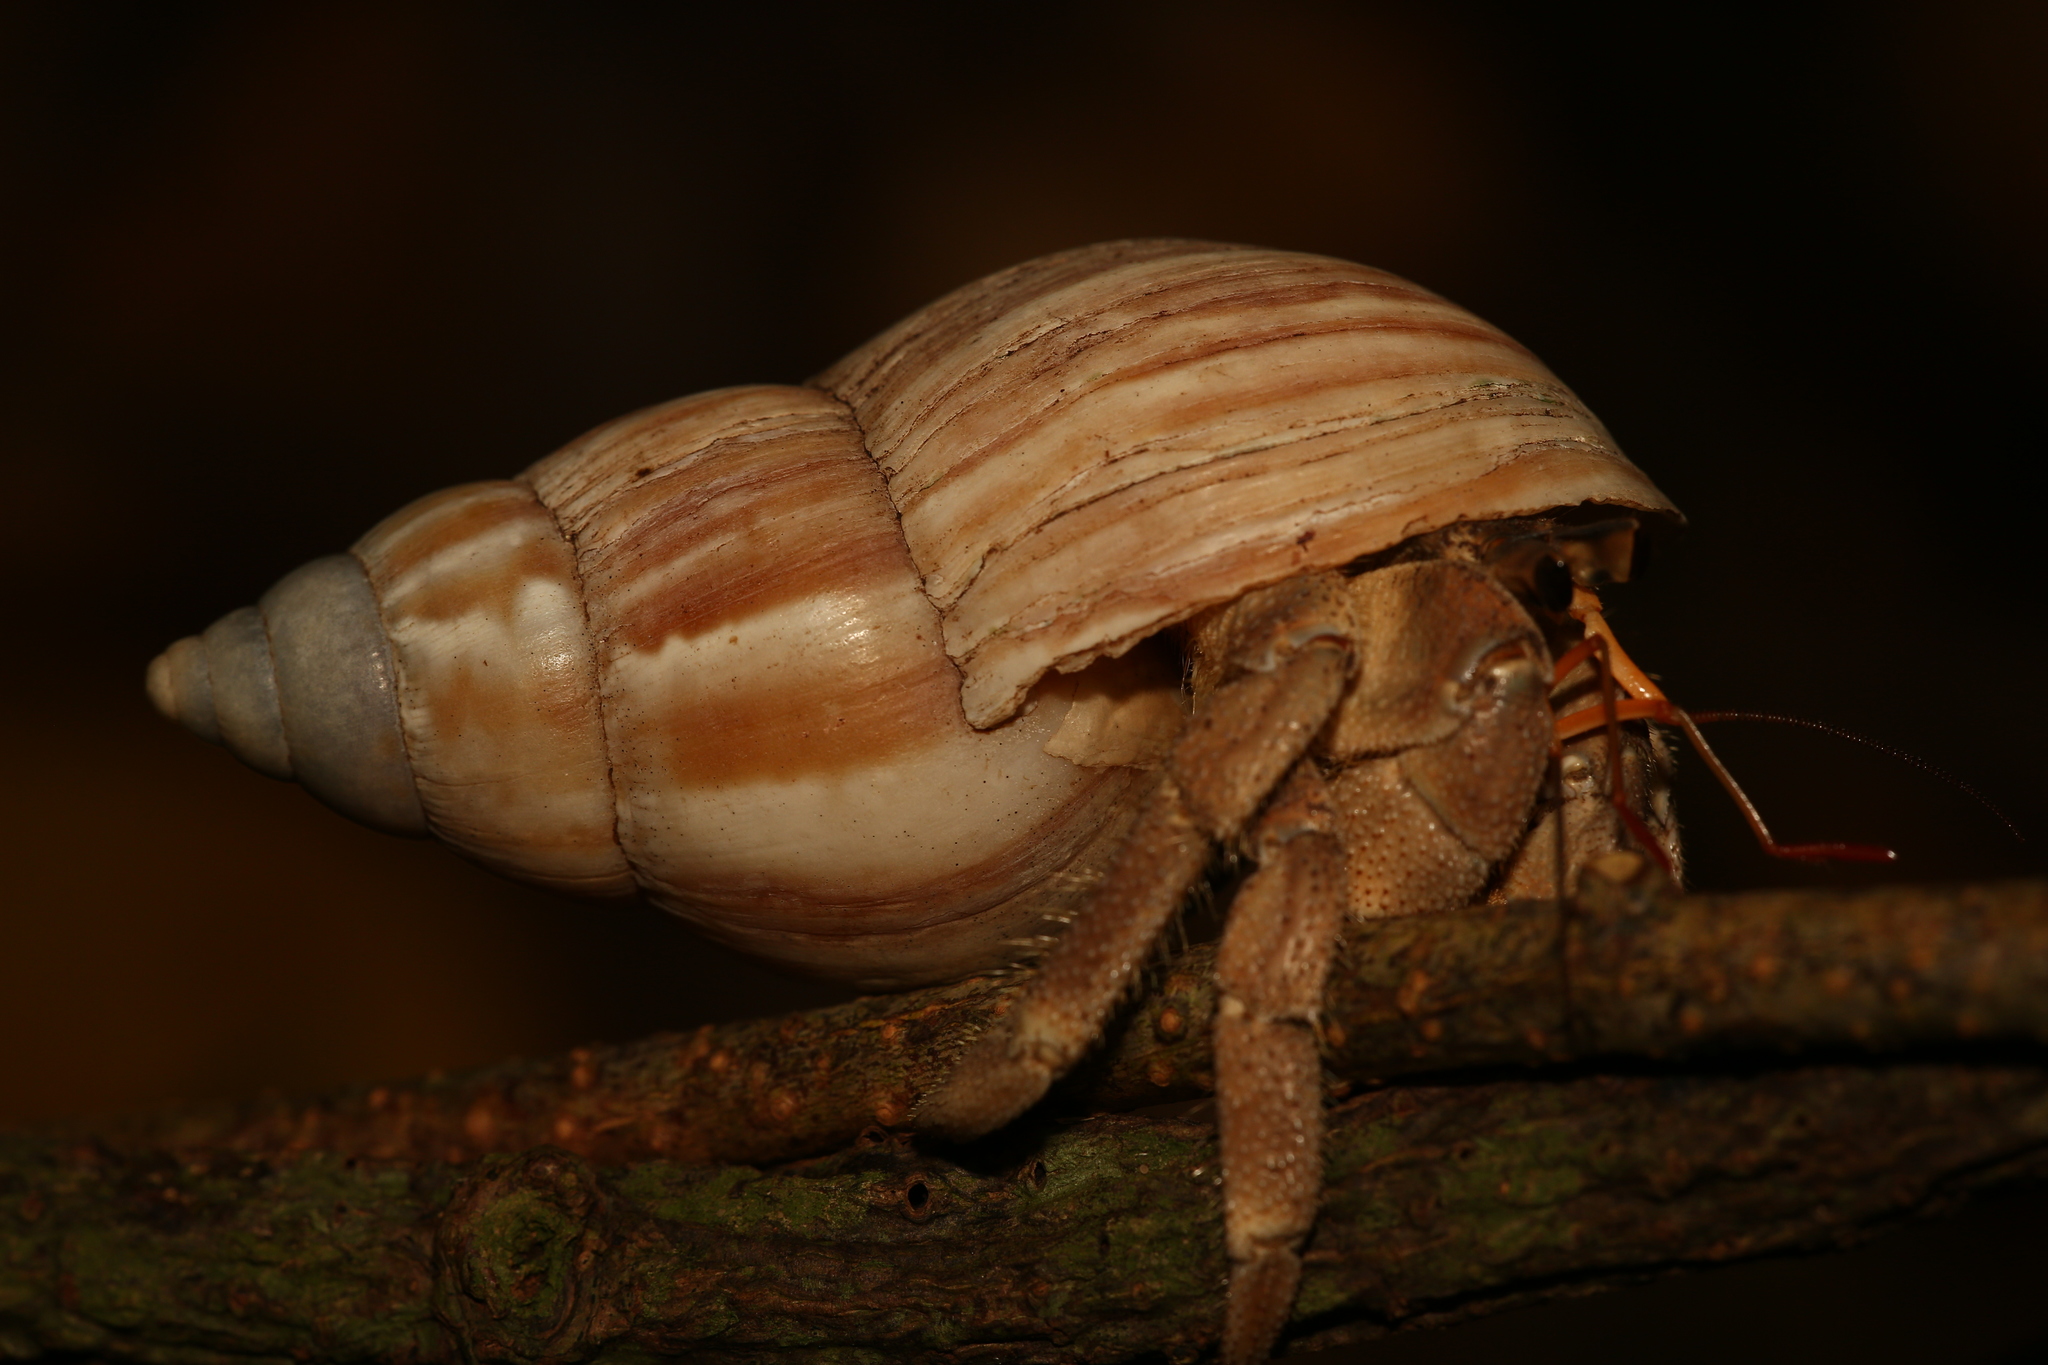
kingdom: Animalia
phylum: Arthropoda
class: Malacostraca
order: Decapoda
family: Coenobitidae
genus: Coenobita
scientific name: Coenobita rugosus
